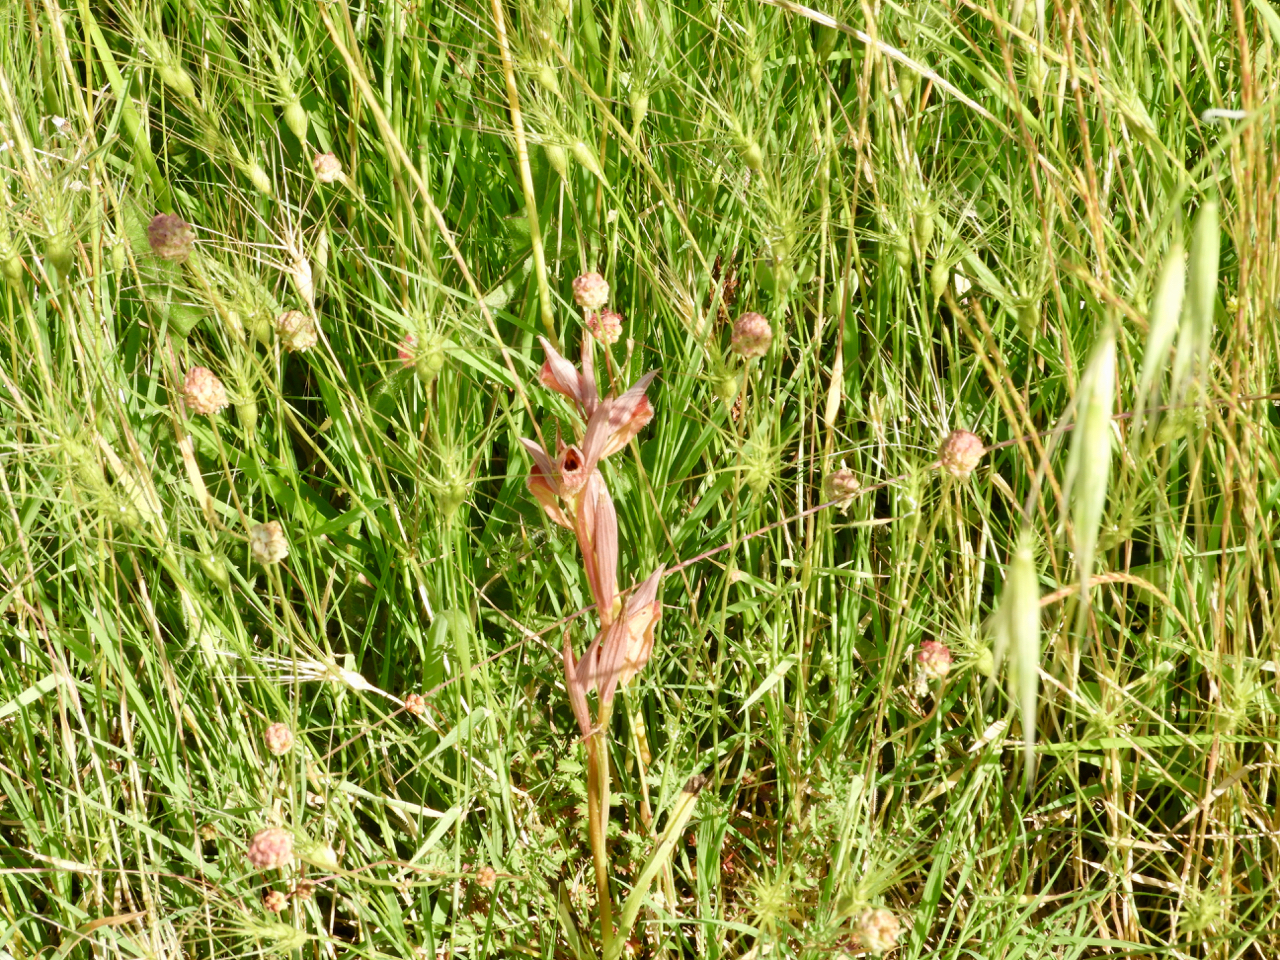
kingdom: Plantae
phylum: Tracheophyta
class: Liliopsida
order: Asparagales
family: Orchidaceae
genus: Serapias
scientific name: Serapias vomeracea
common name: Long-lipped tongue-orchid
